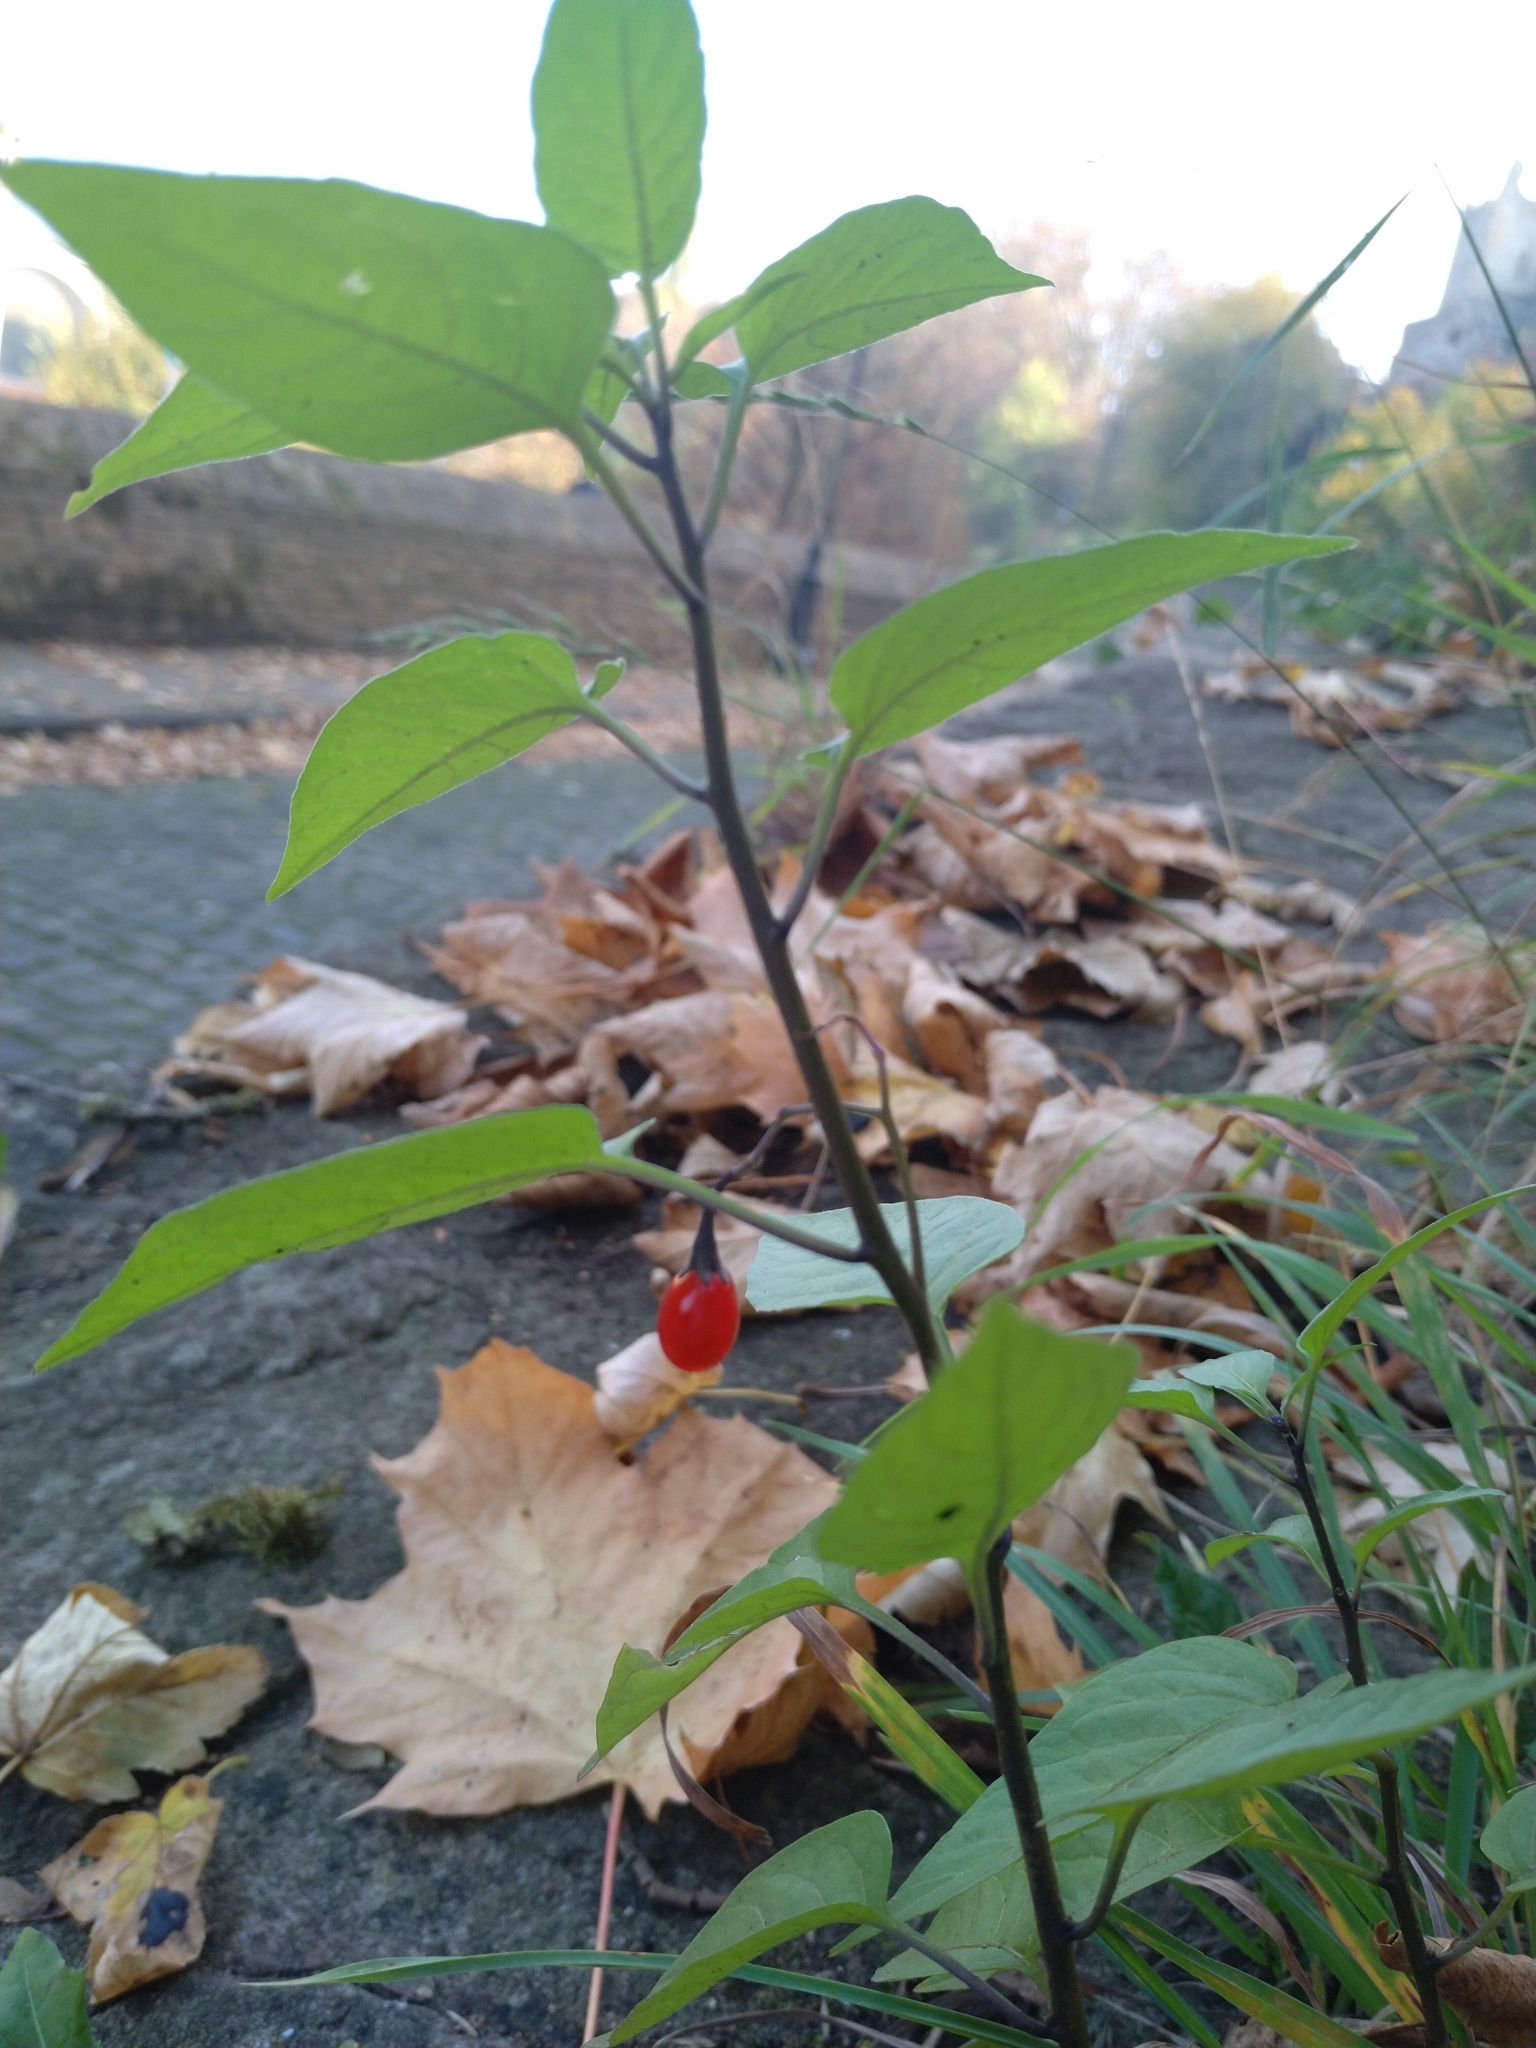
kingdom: Plantae
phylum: Tracheophyta
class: Magnoliopsida
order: Solanales
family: Solanaceae
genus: Solanum
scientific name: Solanum dulcamara
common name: Climbing nightshade
